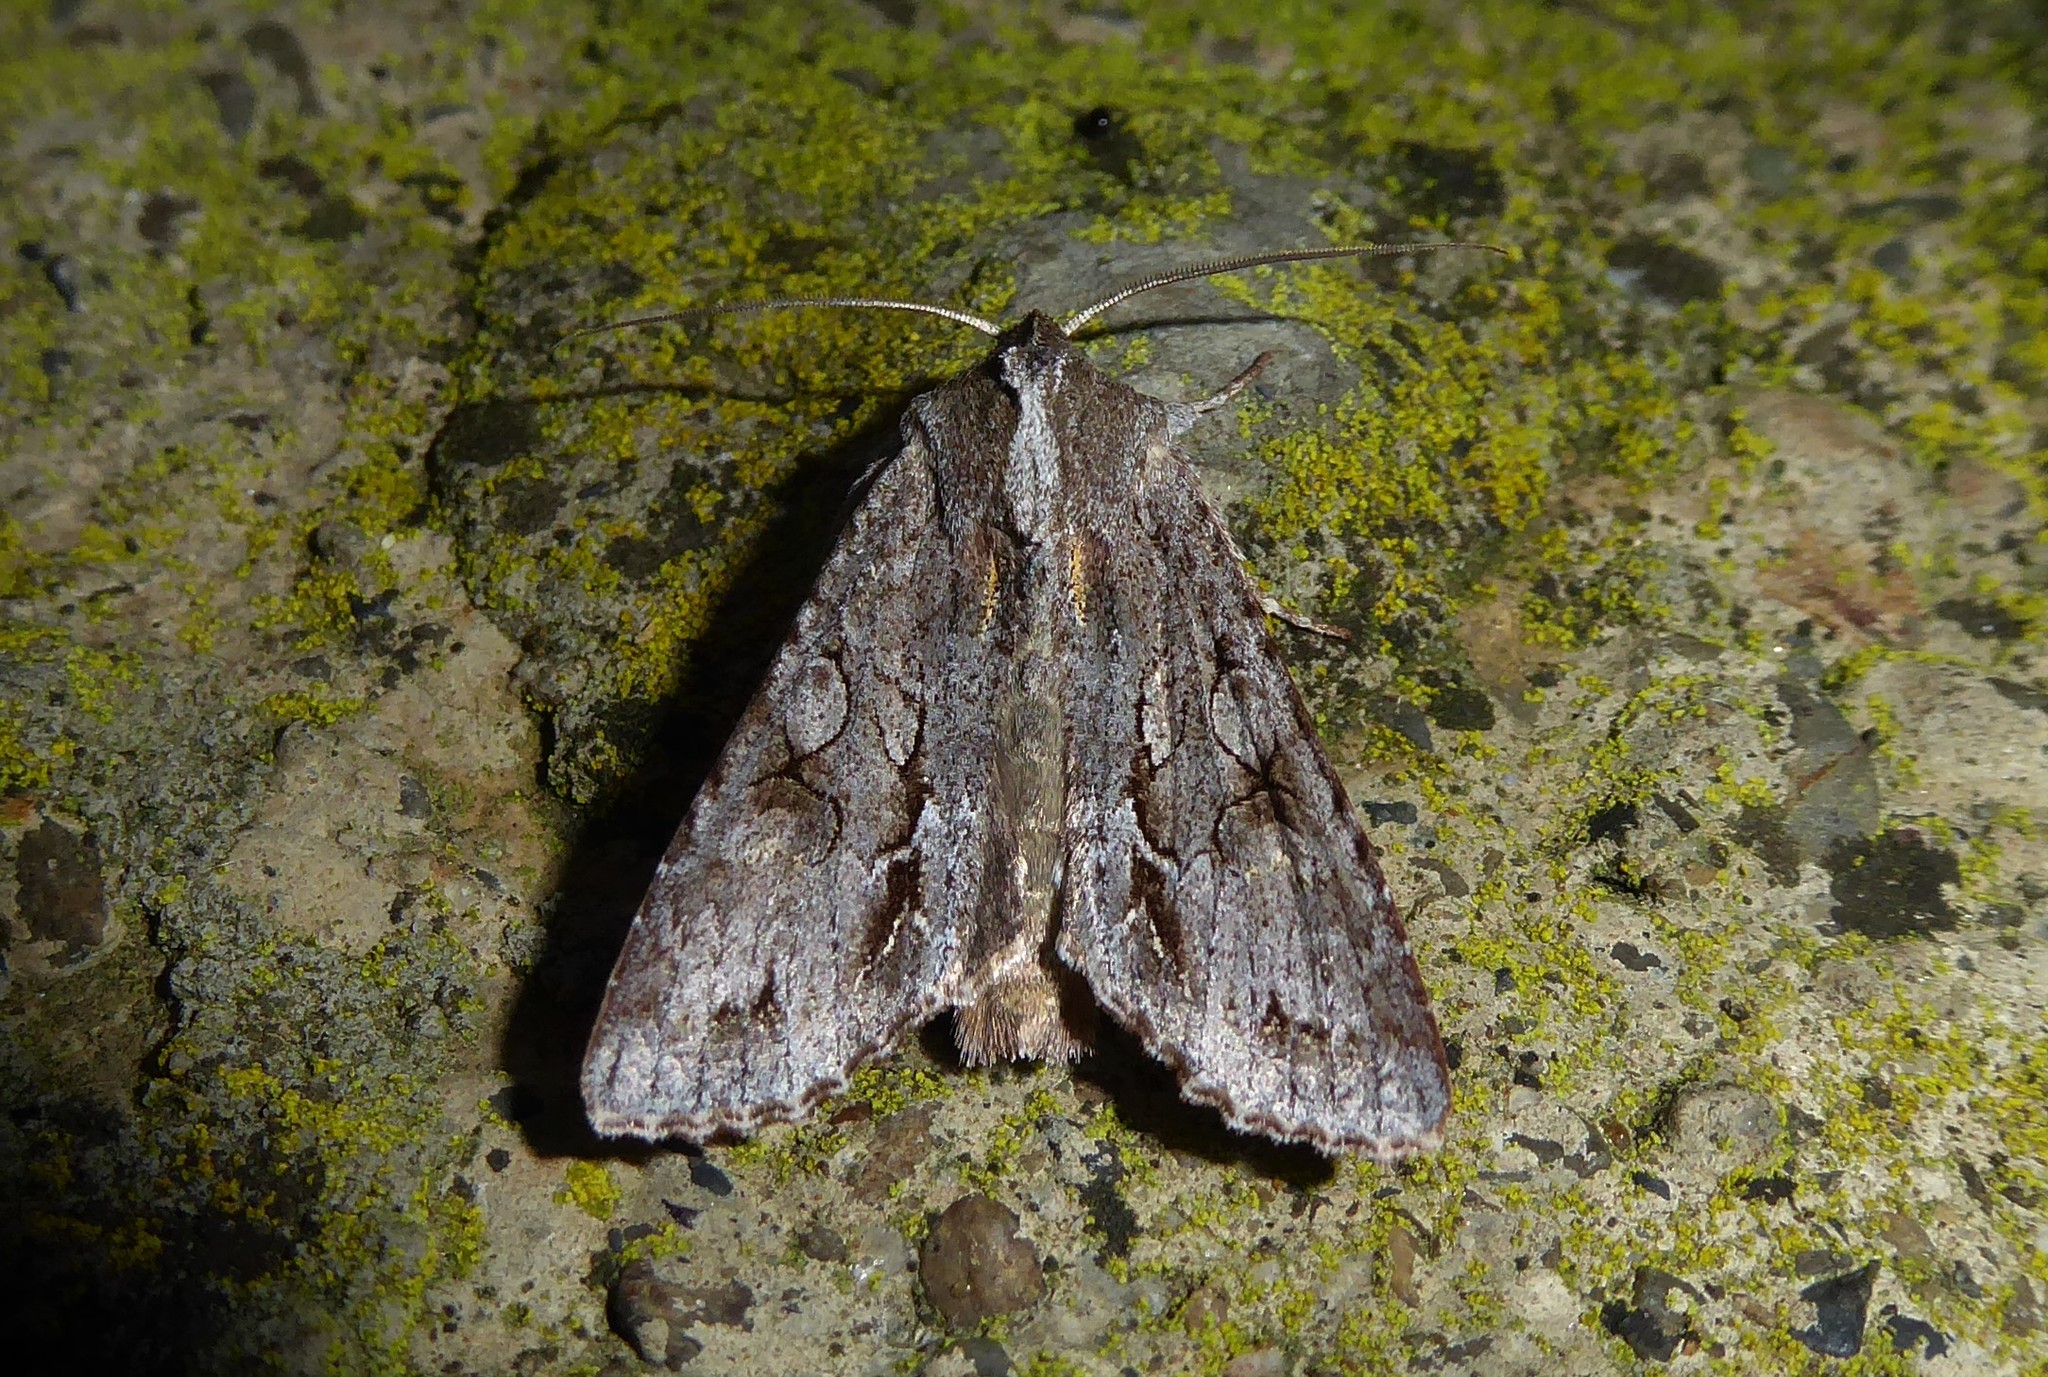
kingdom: Animalia
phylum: Arthropoda
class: Insecta
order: Lepidoptera
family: Noctuidae
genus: Ichneutica
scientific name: Ichneutica
